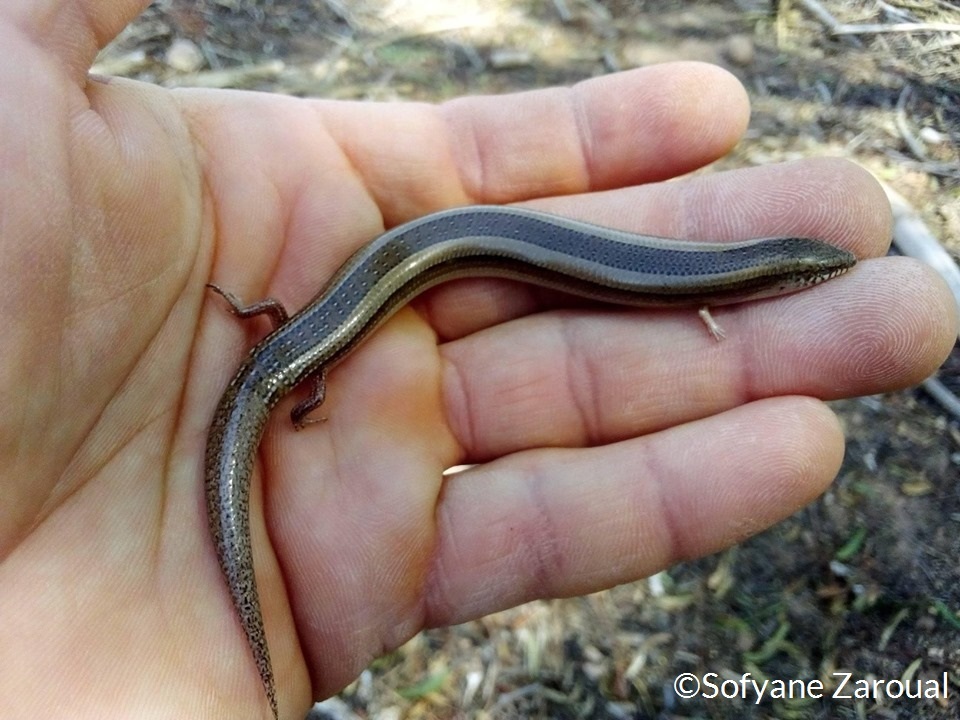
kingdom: Animalia
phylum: Chordata
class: Squamata
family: Scincidae
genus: Chalcides
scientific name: Chalcides mionecton
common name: Morocco cylindrical skink
